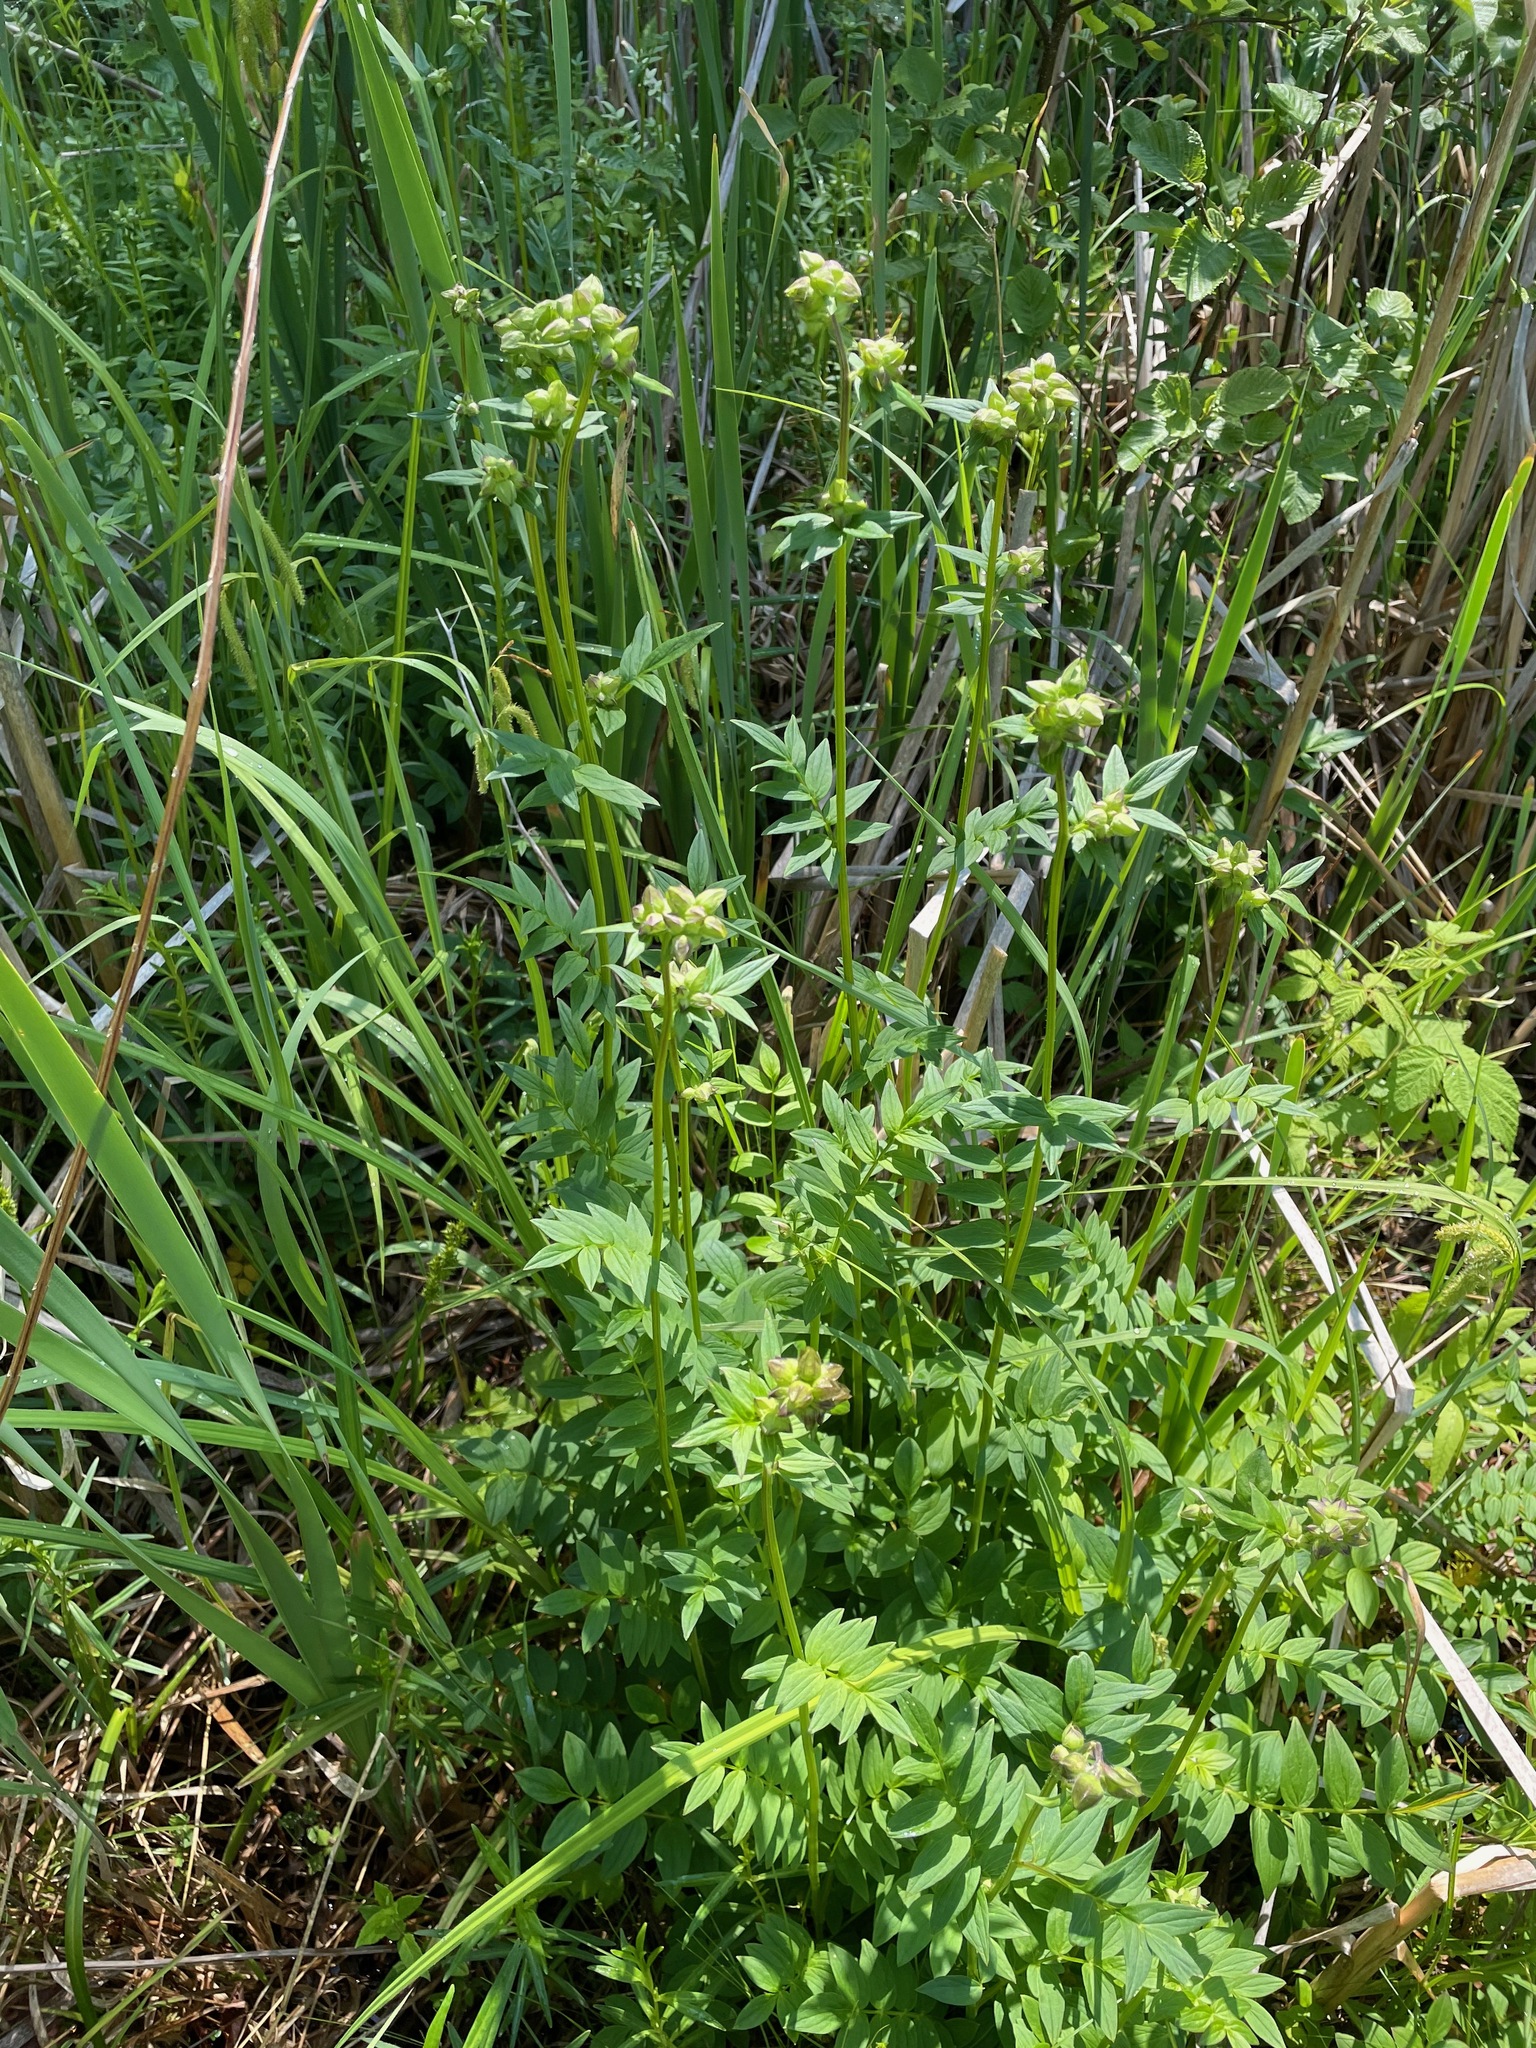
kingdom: Plantae
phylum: Tracheophyta
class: Magnoliopsida
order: Ericales
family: Polemoniaceae
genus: Polemonium
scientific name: Polemonium vanbruntiae
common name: Bog jacob's-ladder
